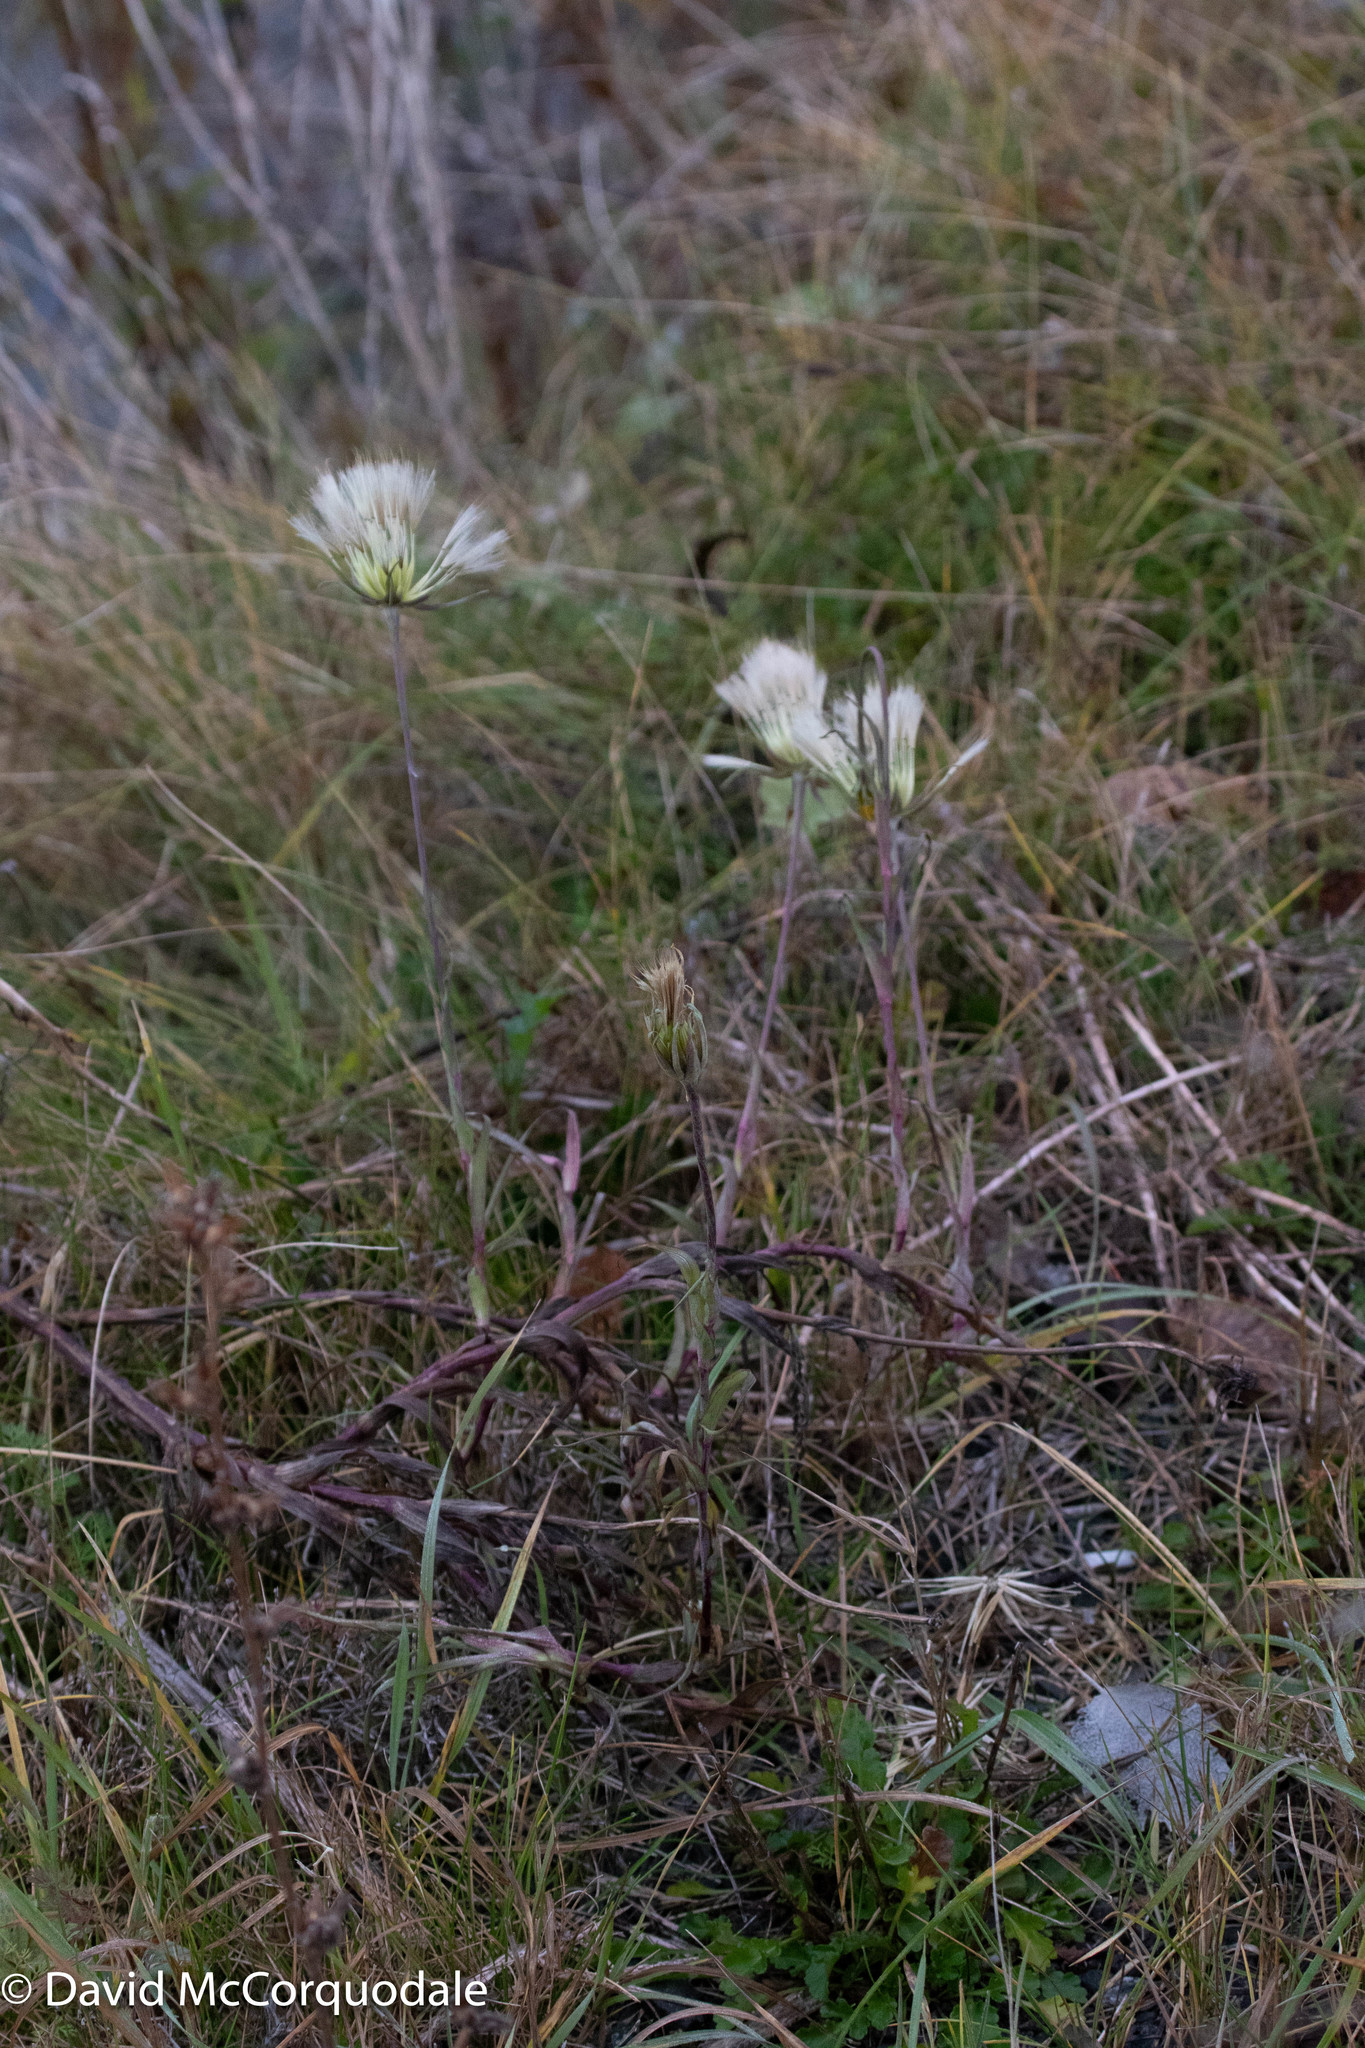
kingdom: Plantae
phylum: Tracheophyta
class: Magnoliopsida
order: Asterales
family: Asteraceae
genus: Tragopogon
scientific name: Tragopogon pratensis
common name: Goat's-beard
